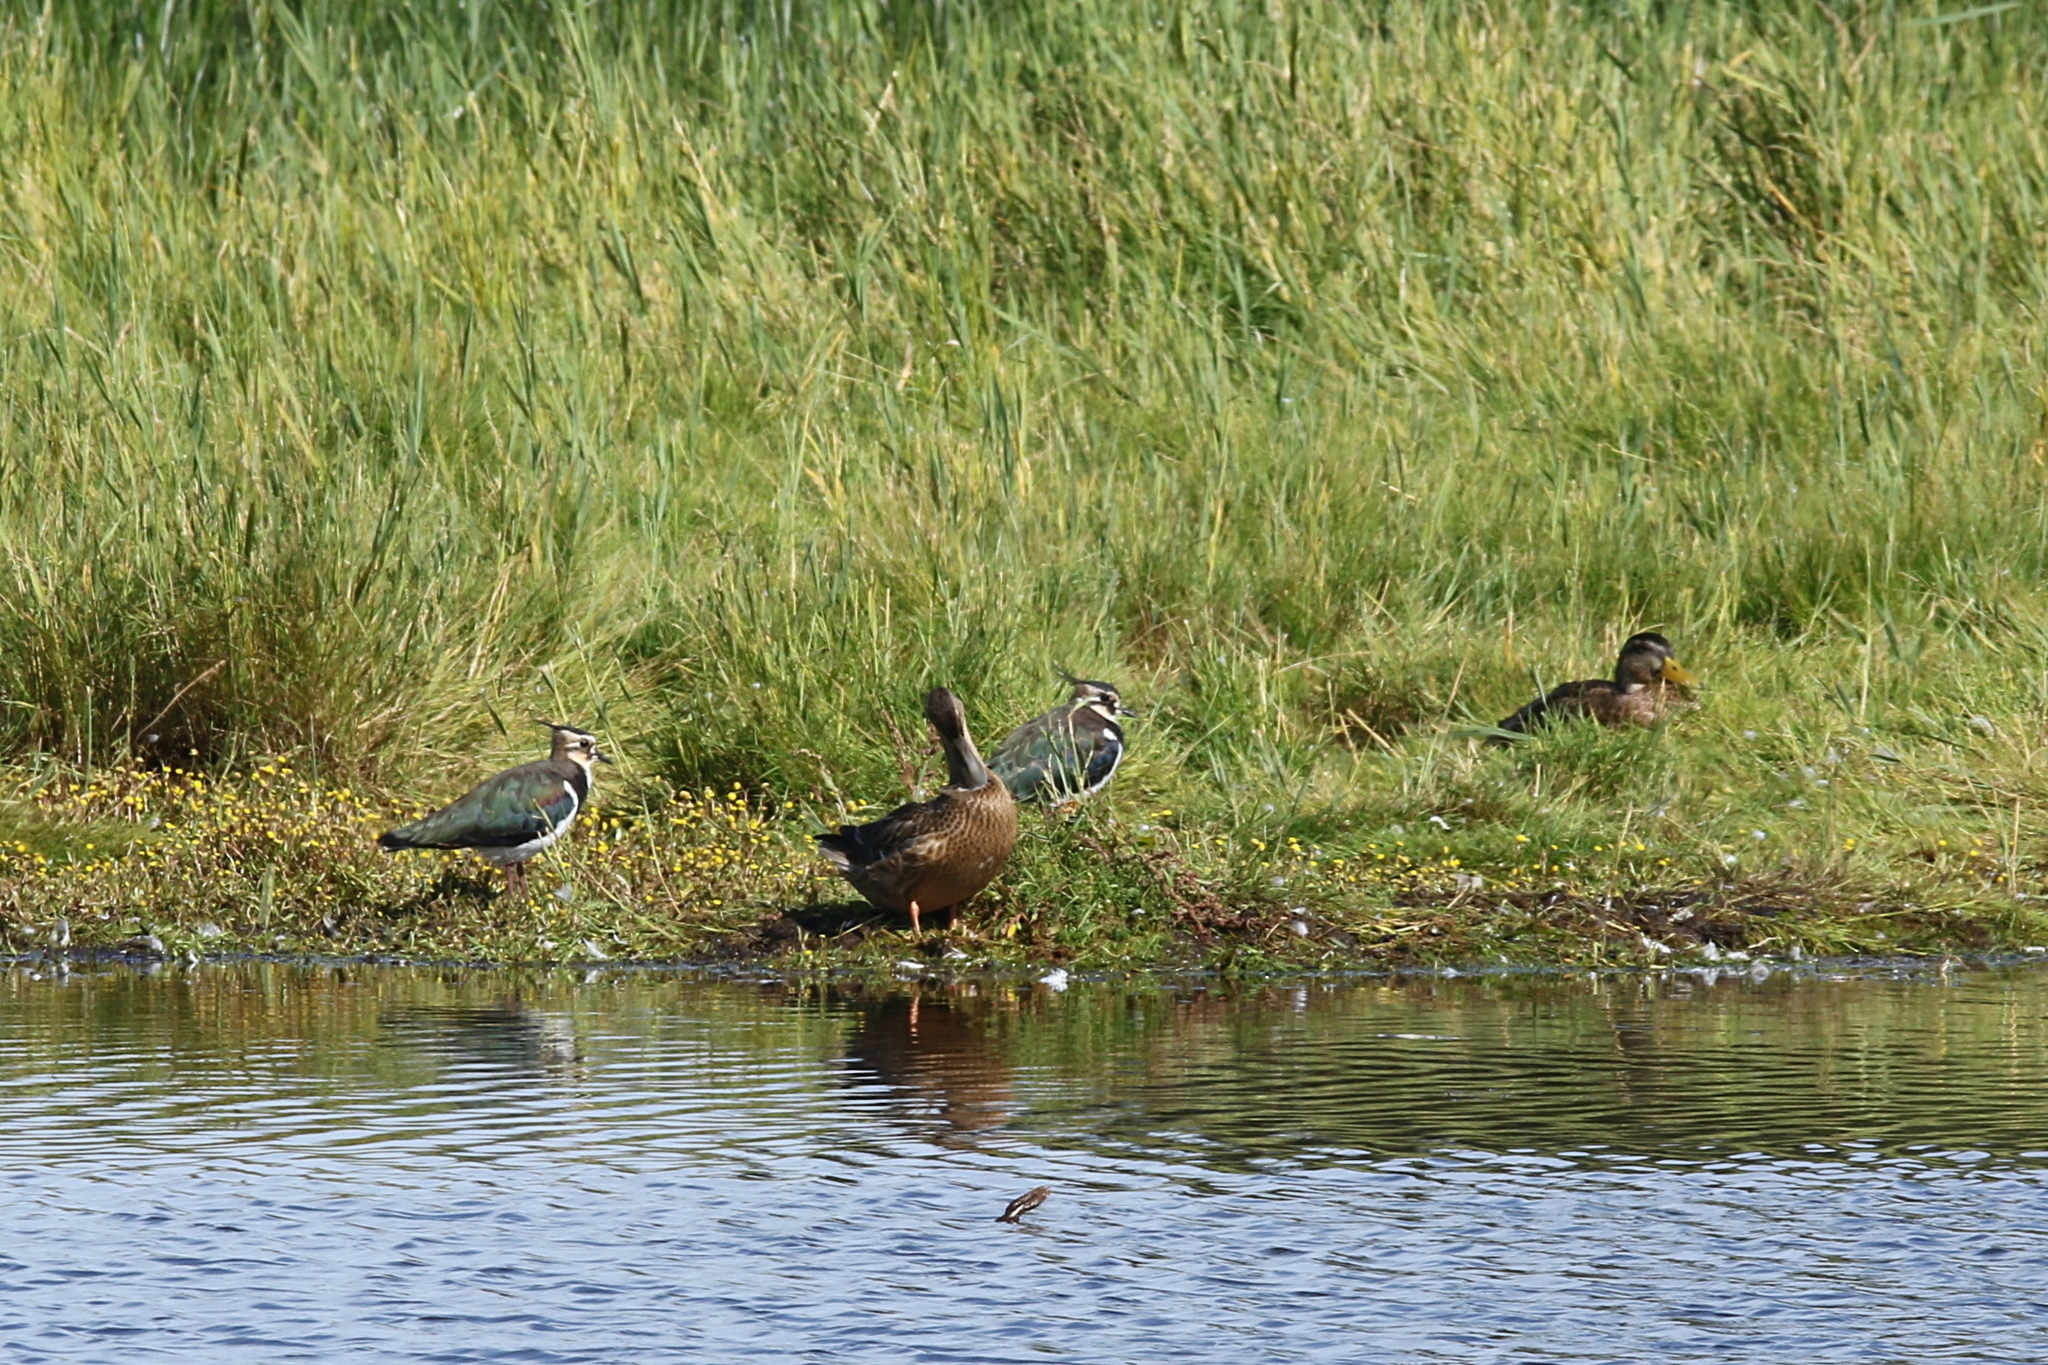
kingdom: Animalia
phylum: Chordata
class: Aves
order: Anseriformes
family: Anatidae
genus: Spatula
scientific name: Spatula clypeata
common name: Northern shoveler
